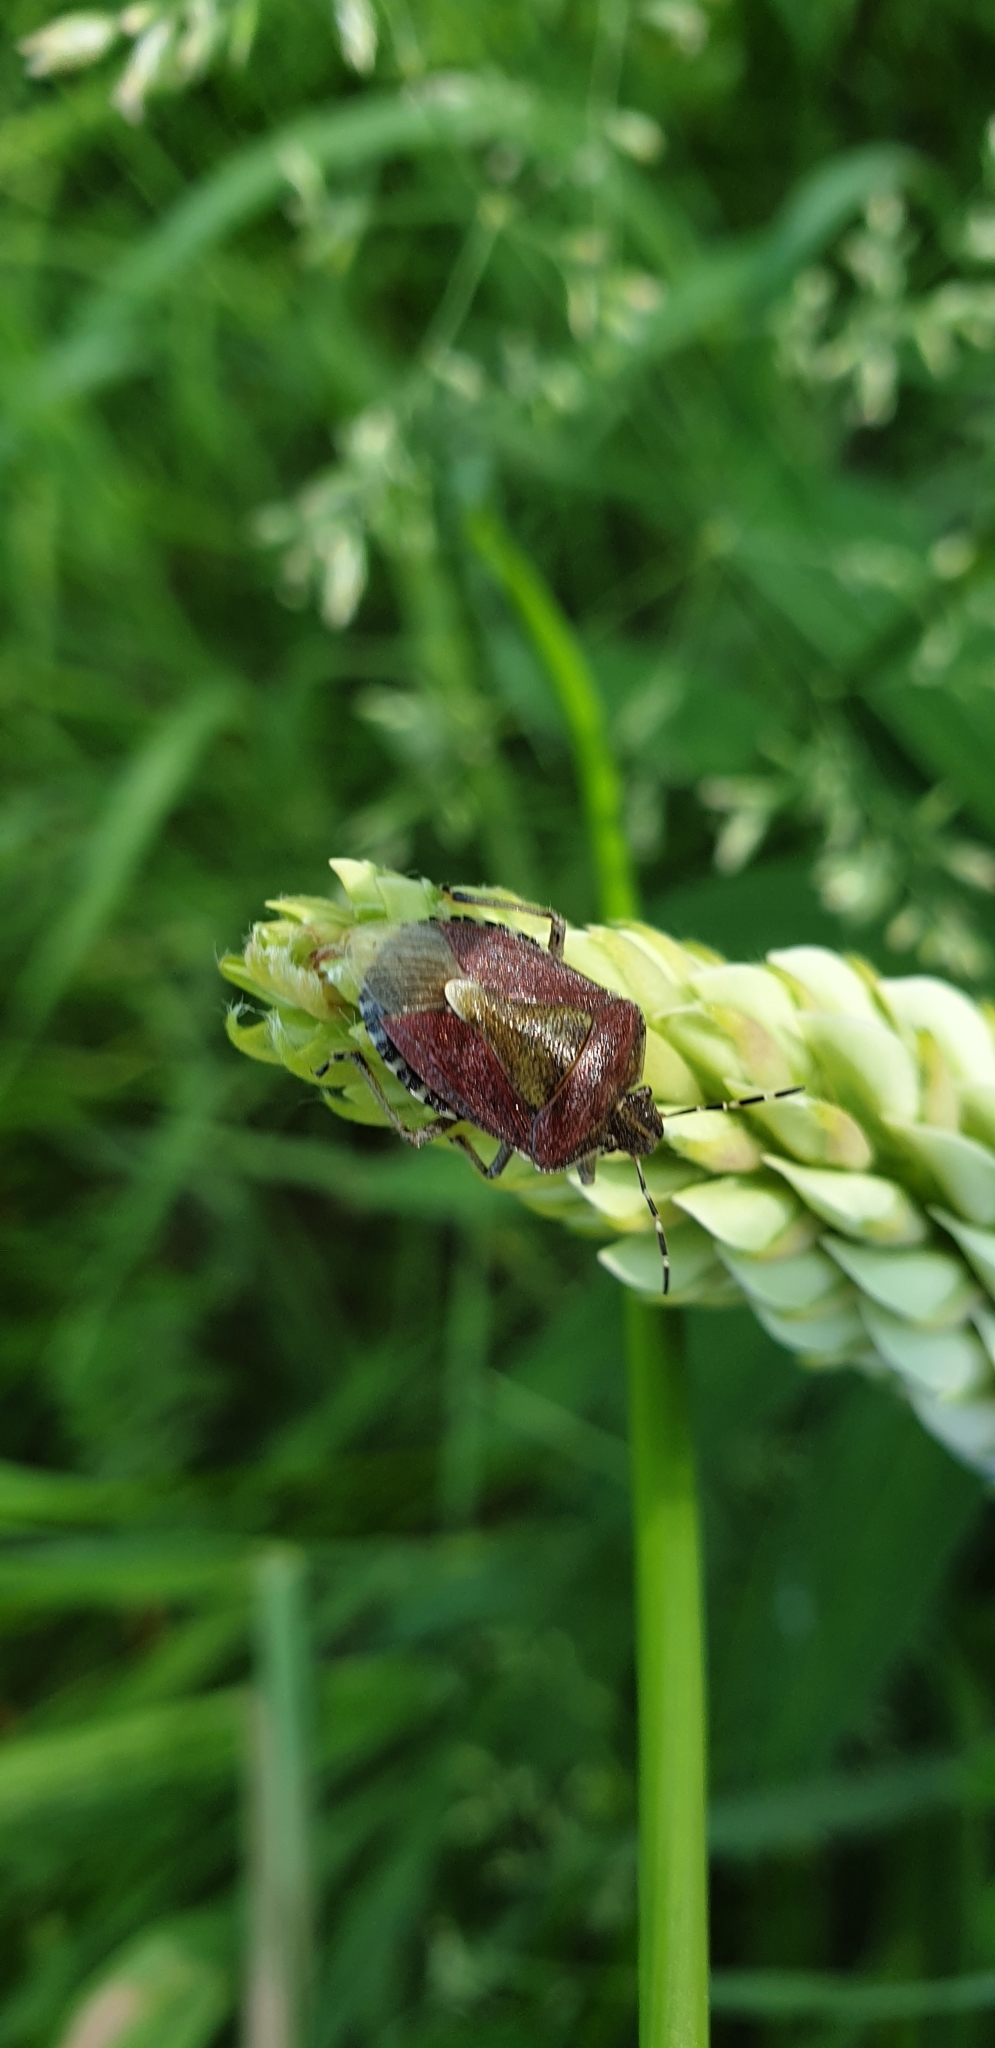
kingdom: Animalia
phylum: Arthropoda
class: Insecta
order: Hemiptera
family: Pentatomidae
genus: Dolycoris
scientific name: Dolycoris baccarum
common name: Sloe bug
